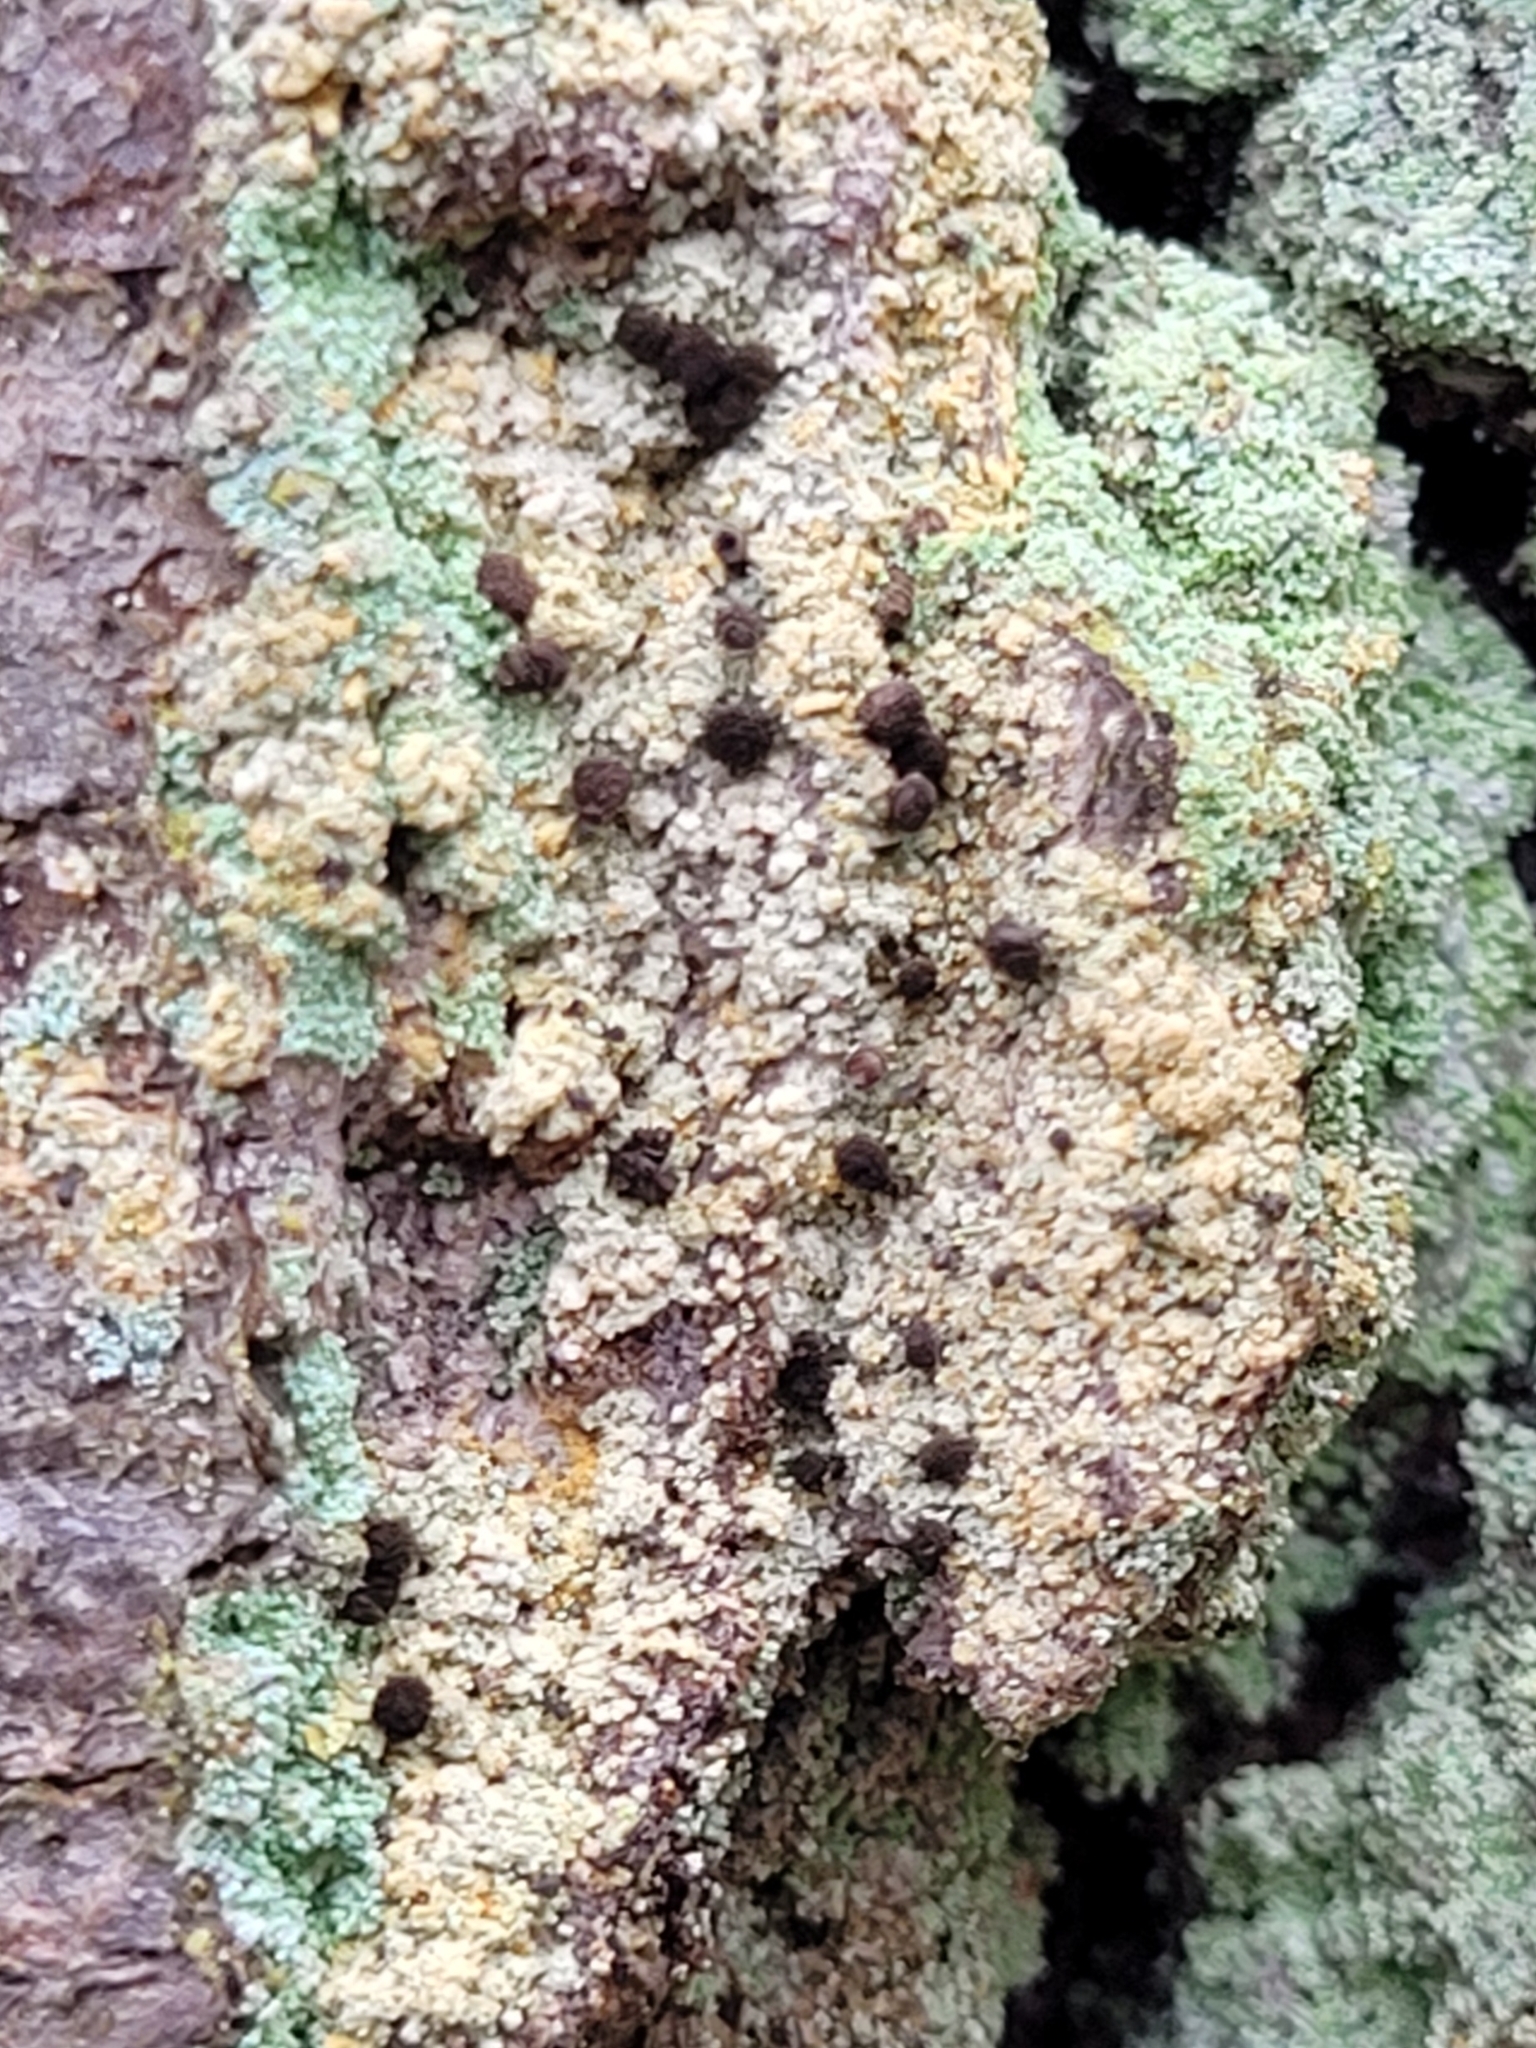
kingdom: Fungi
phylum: Ascomycota
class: Coniocybomycetes
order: Coniocybales
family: Coniocybaceae
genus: Chaenotheca
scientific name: Chaenotheca ferruginea
